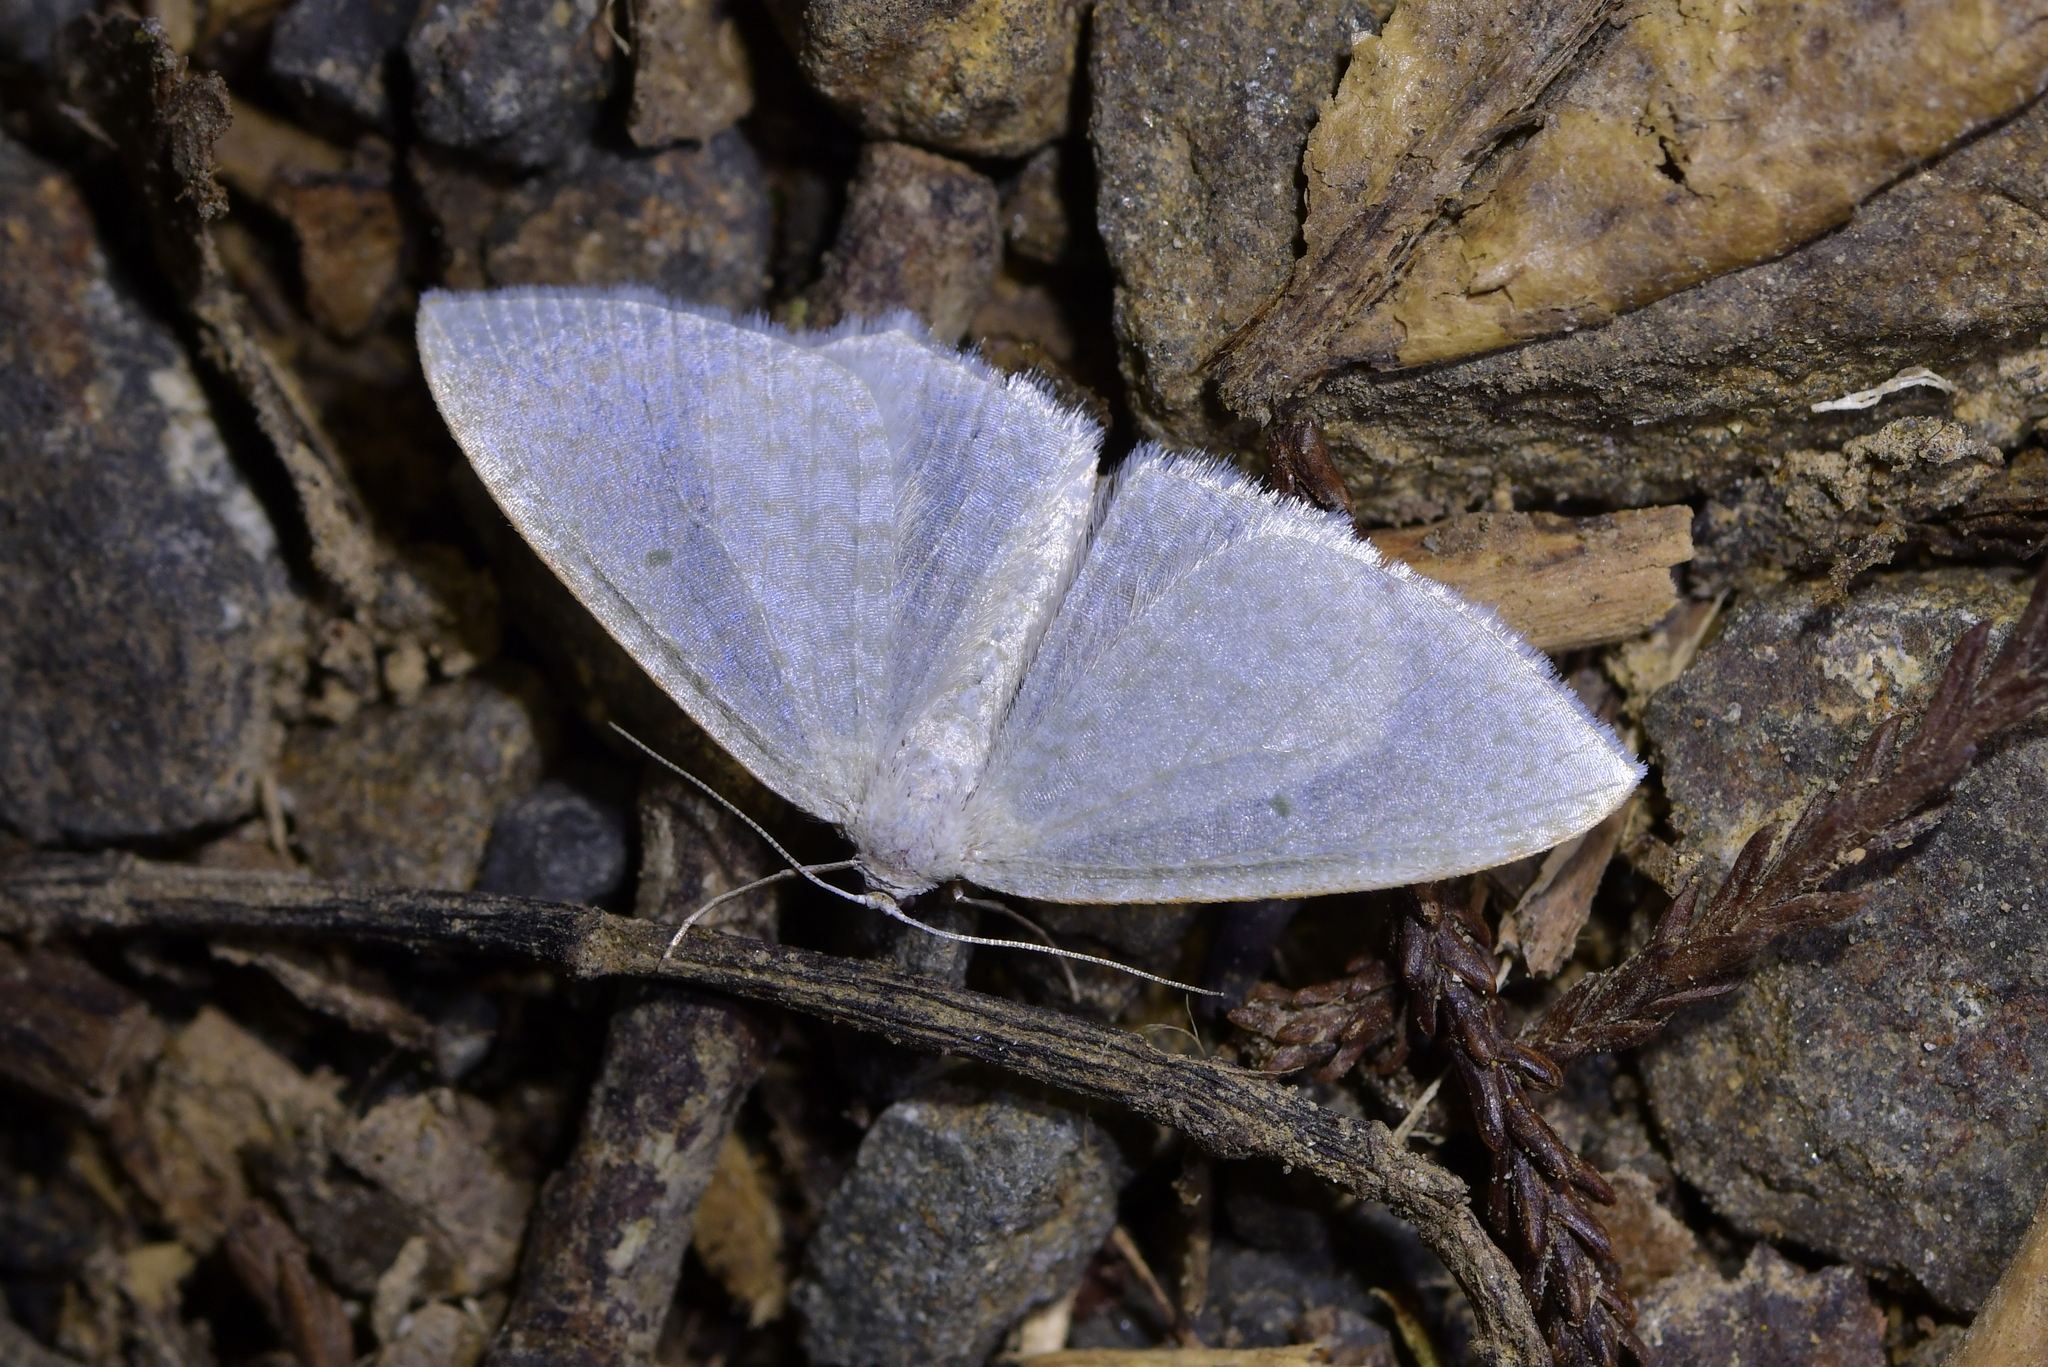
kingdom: Animalia
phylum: Arthropoda
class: Insecta
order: Lepidoptera
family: Geometridae
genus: Poecilasthena
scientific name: Poecilasthena pulchraria
